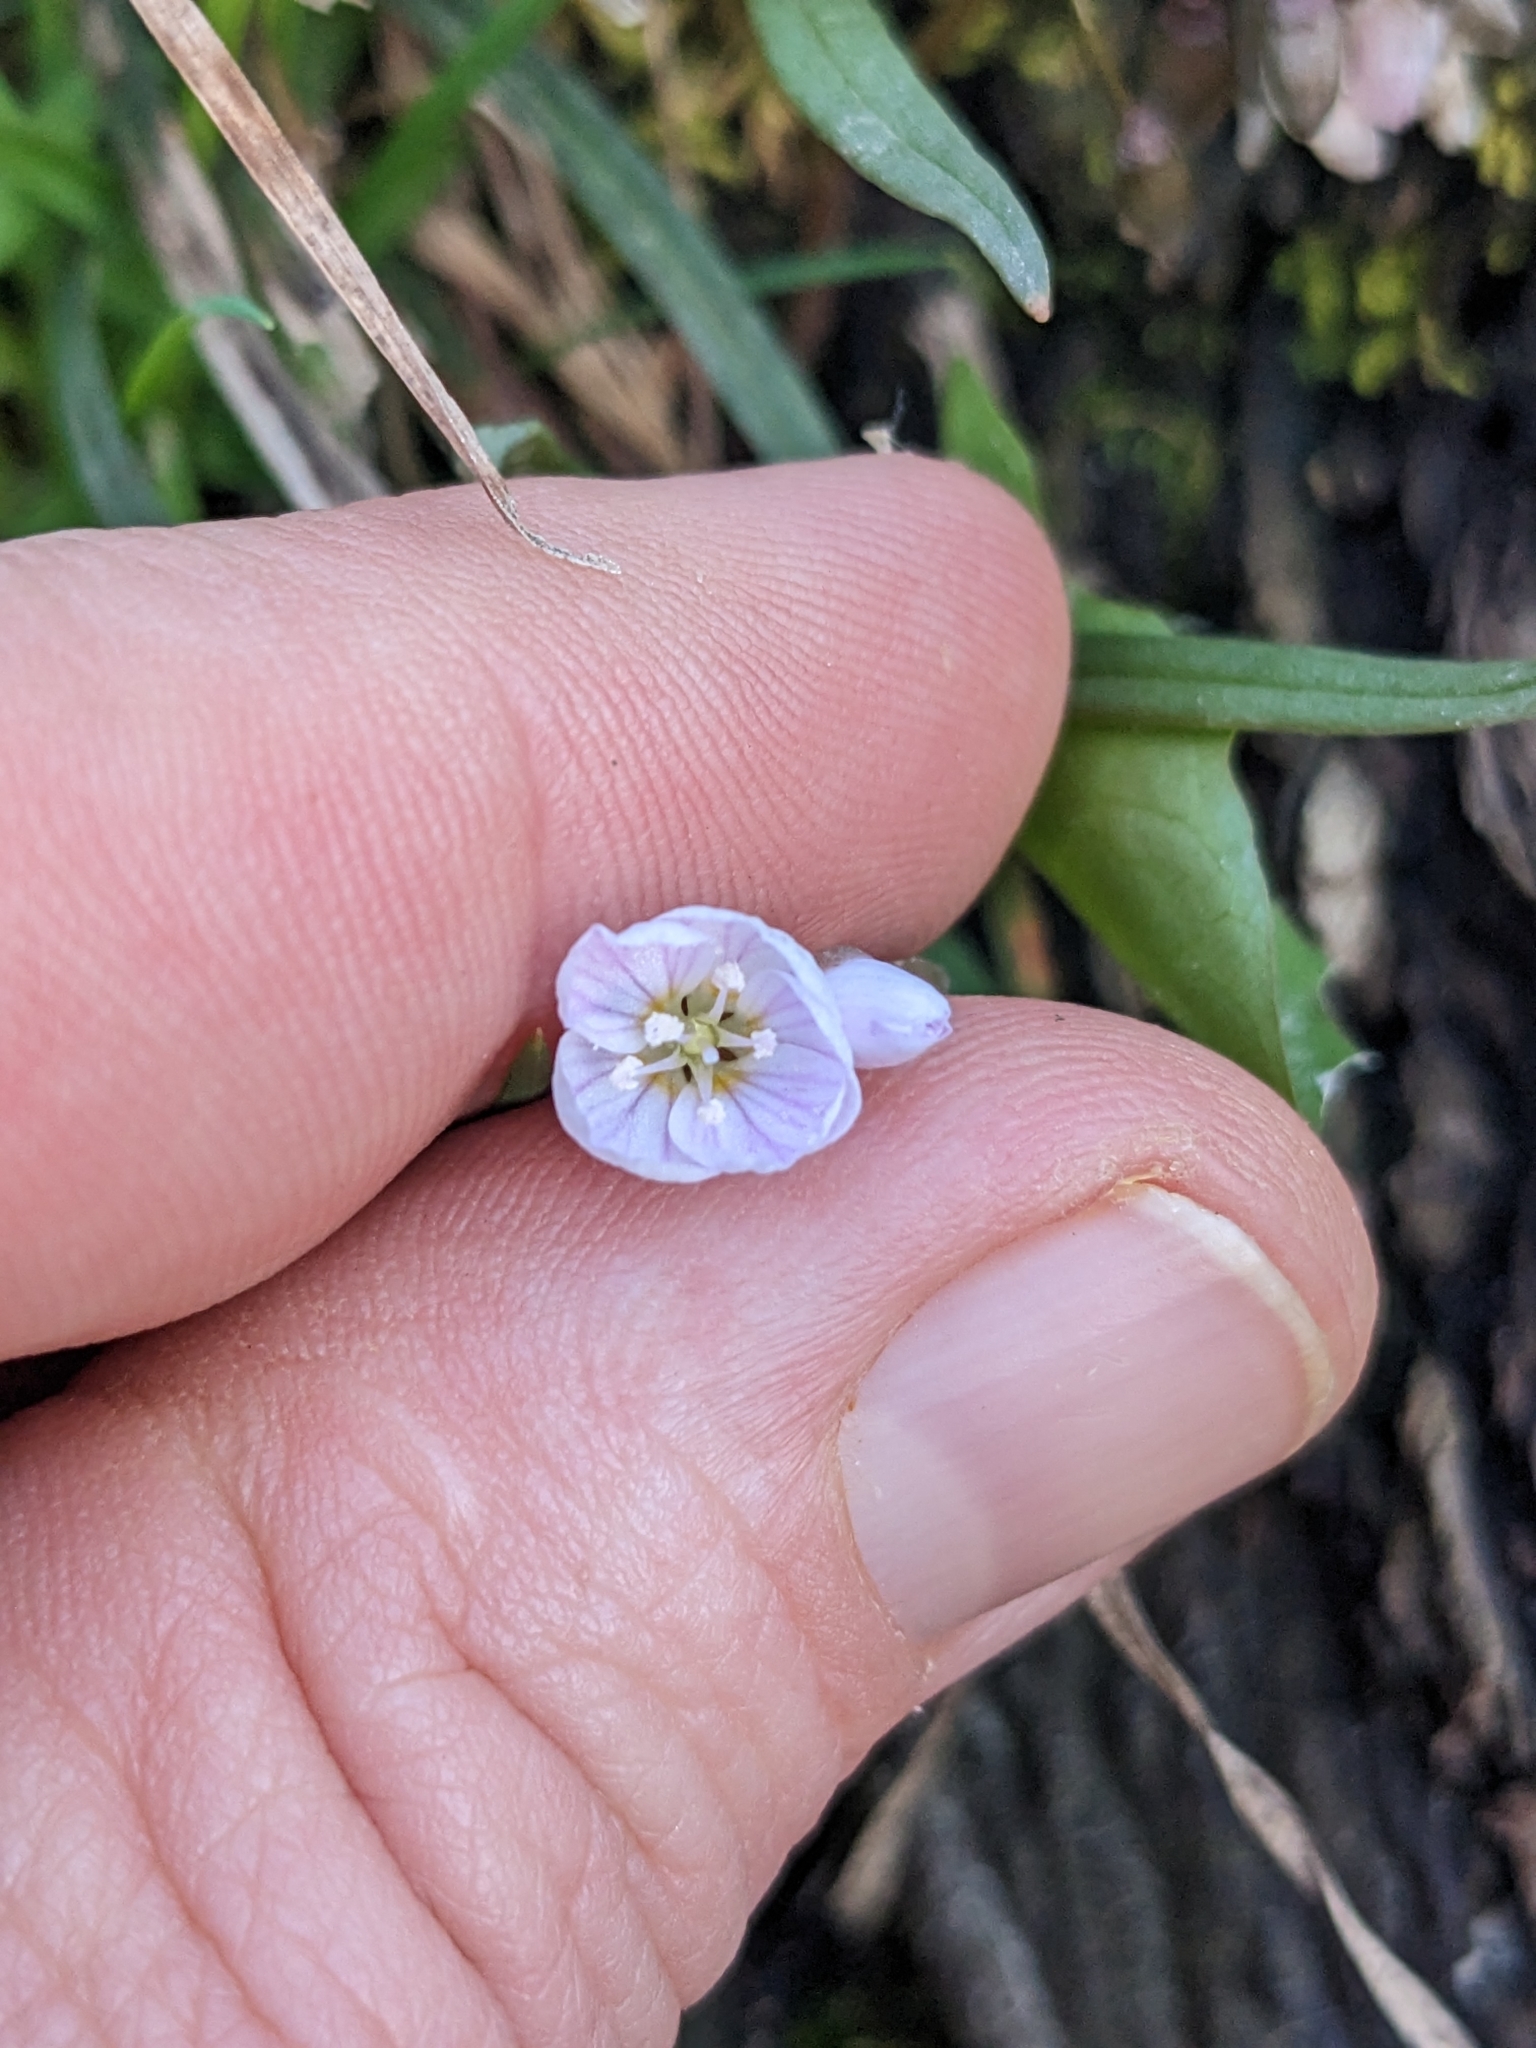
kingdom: Plantae
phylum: Tracheophyta
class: Magnoliopsida
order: Caryophyllales
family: Montiaceae
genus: Claytonia
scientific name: Claytonia virginica
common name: Virginia springbeauty
